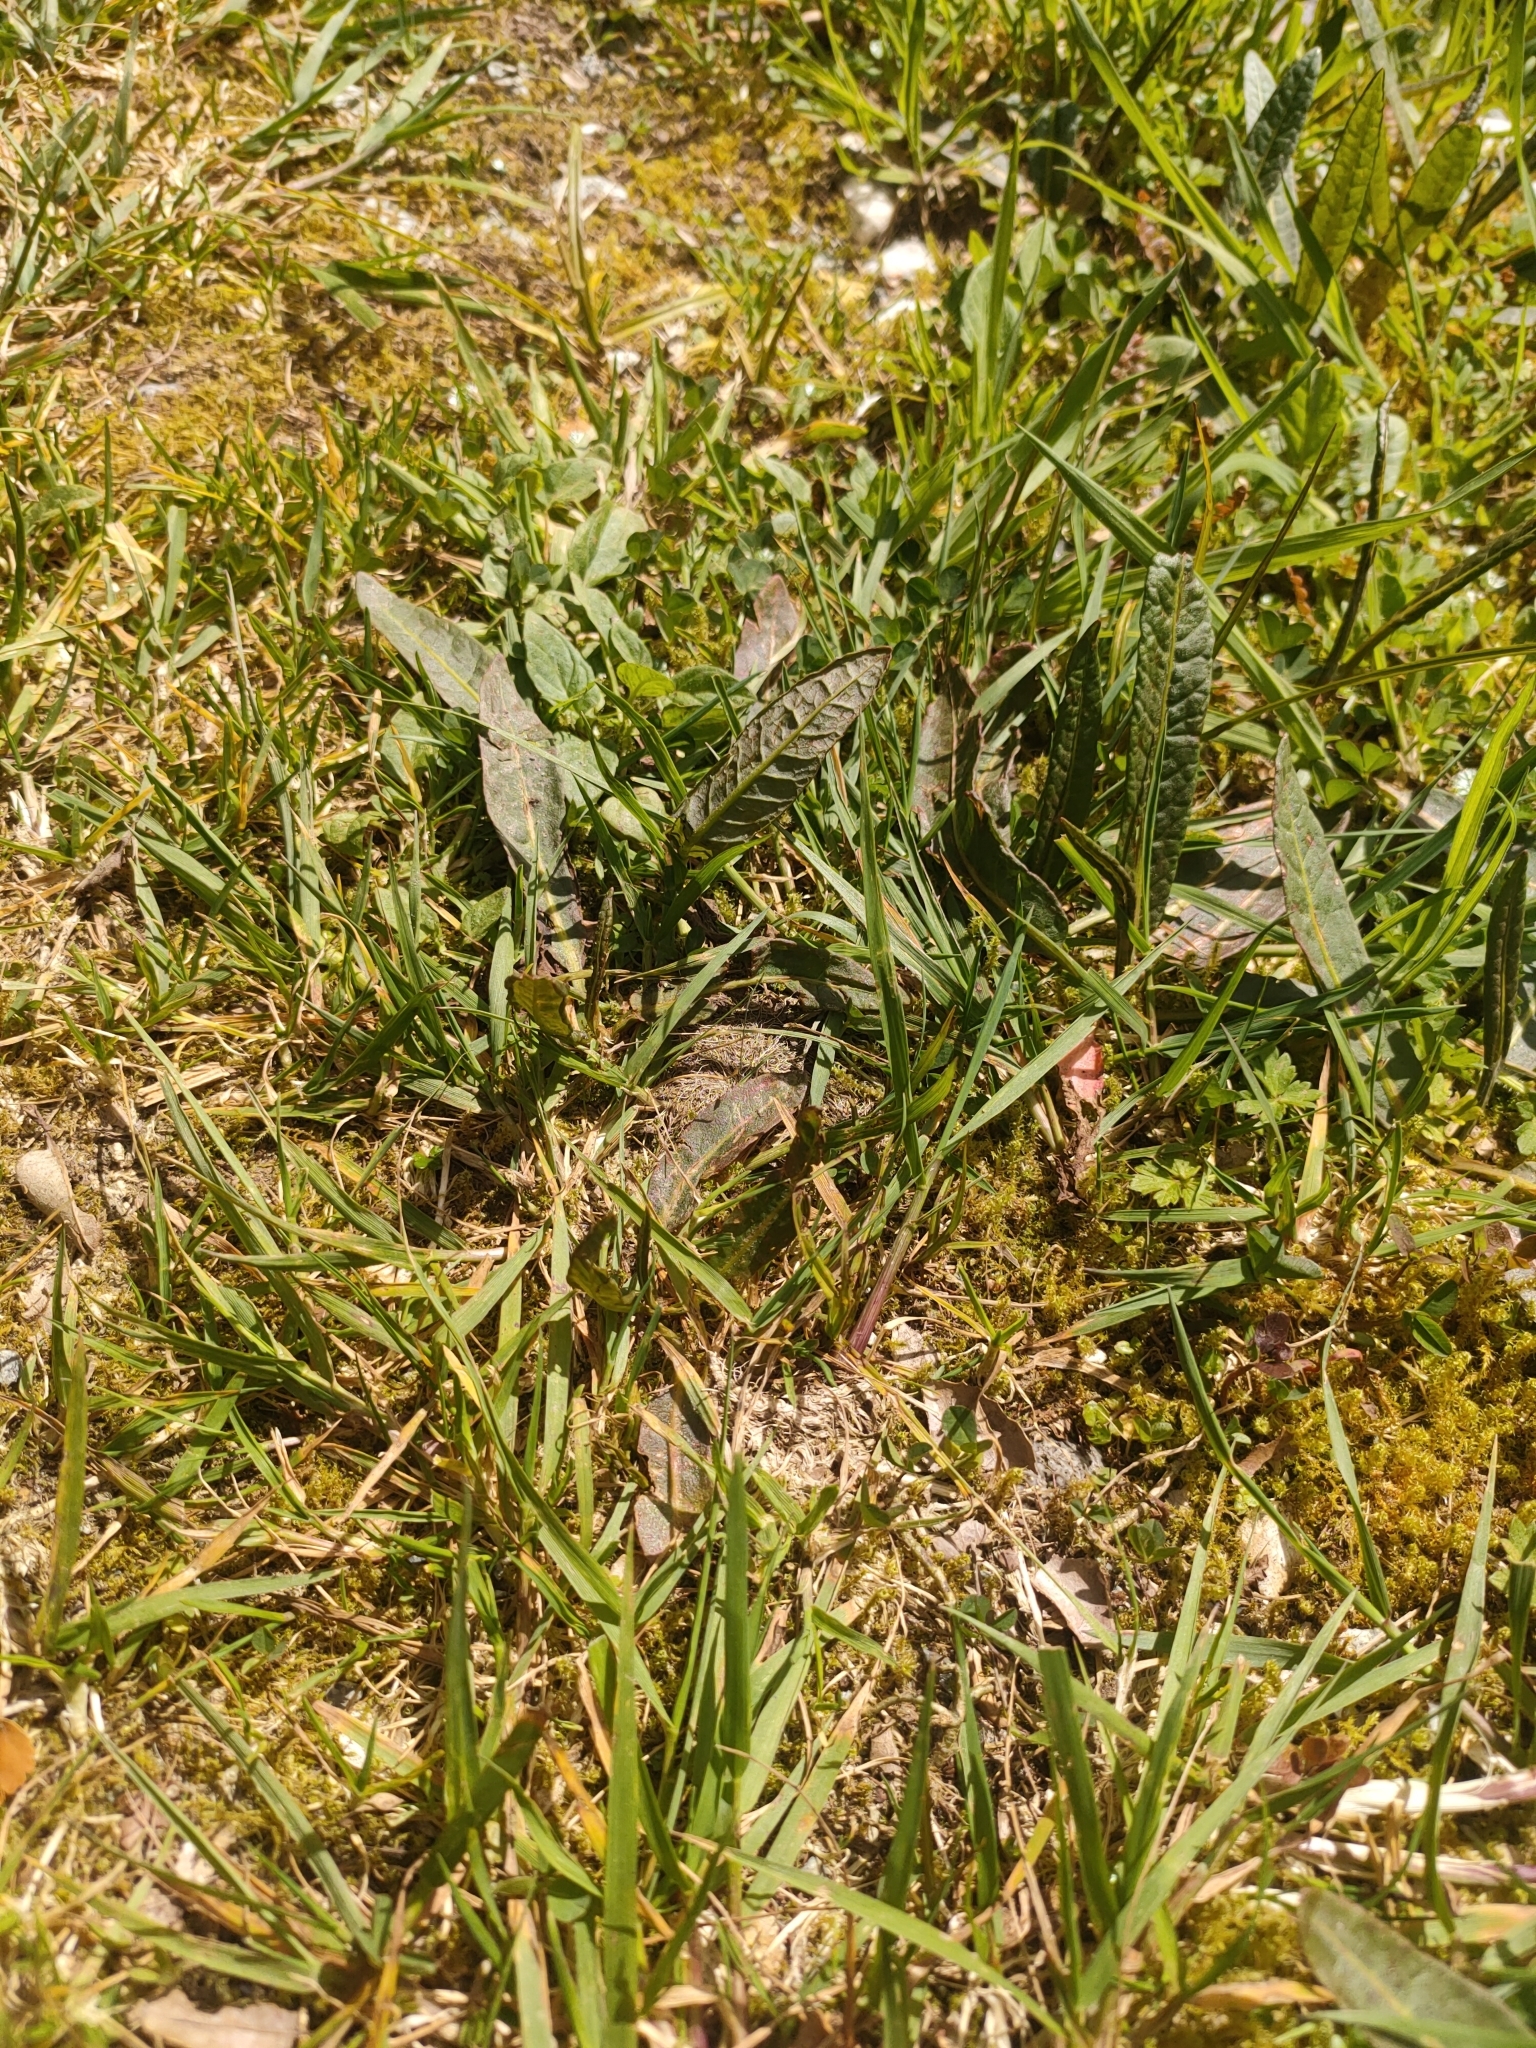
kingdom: Plantae
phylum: Tracheophyta
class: Magnoliopsida
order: Caryophyllales
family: Polygonaceae
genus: Rumex
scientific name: Rumex flexuosus
